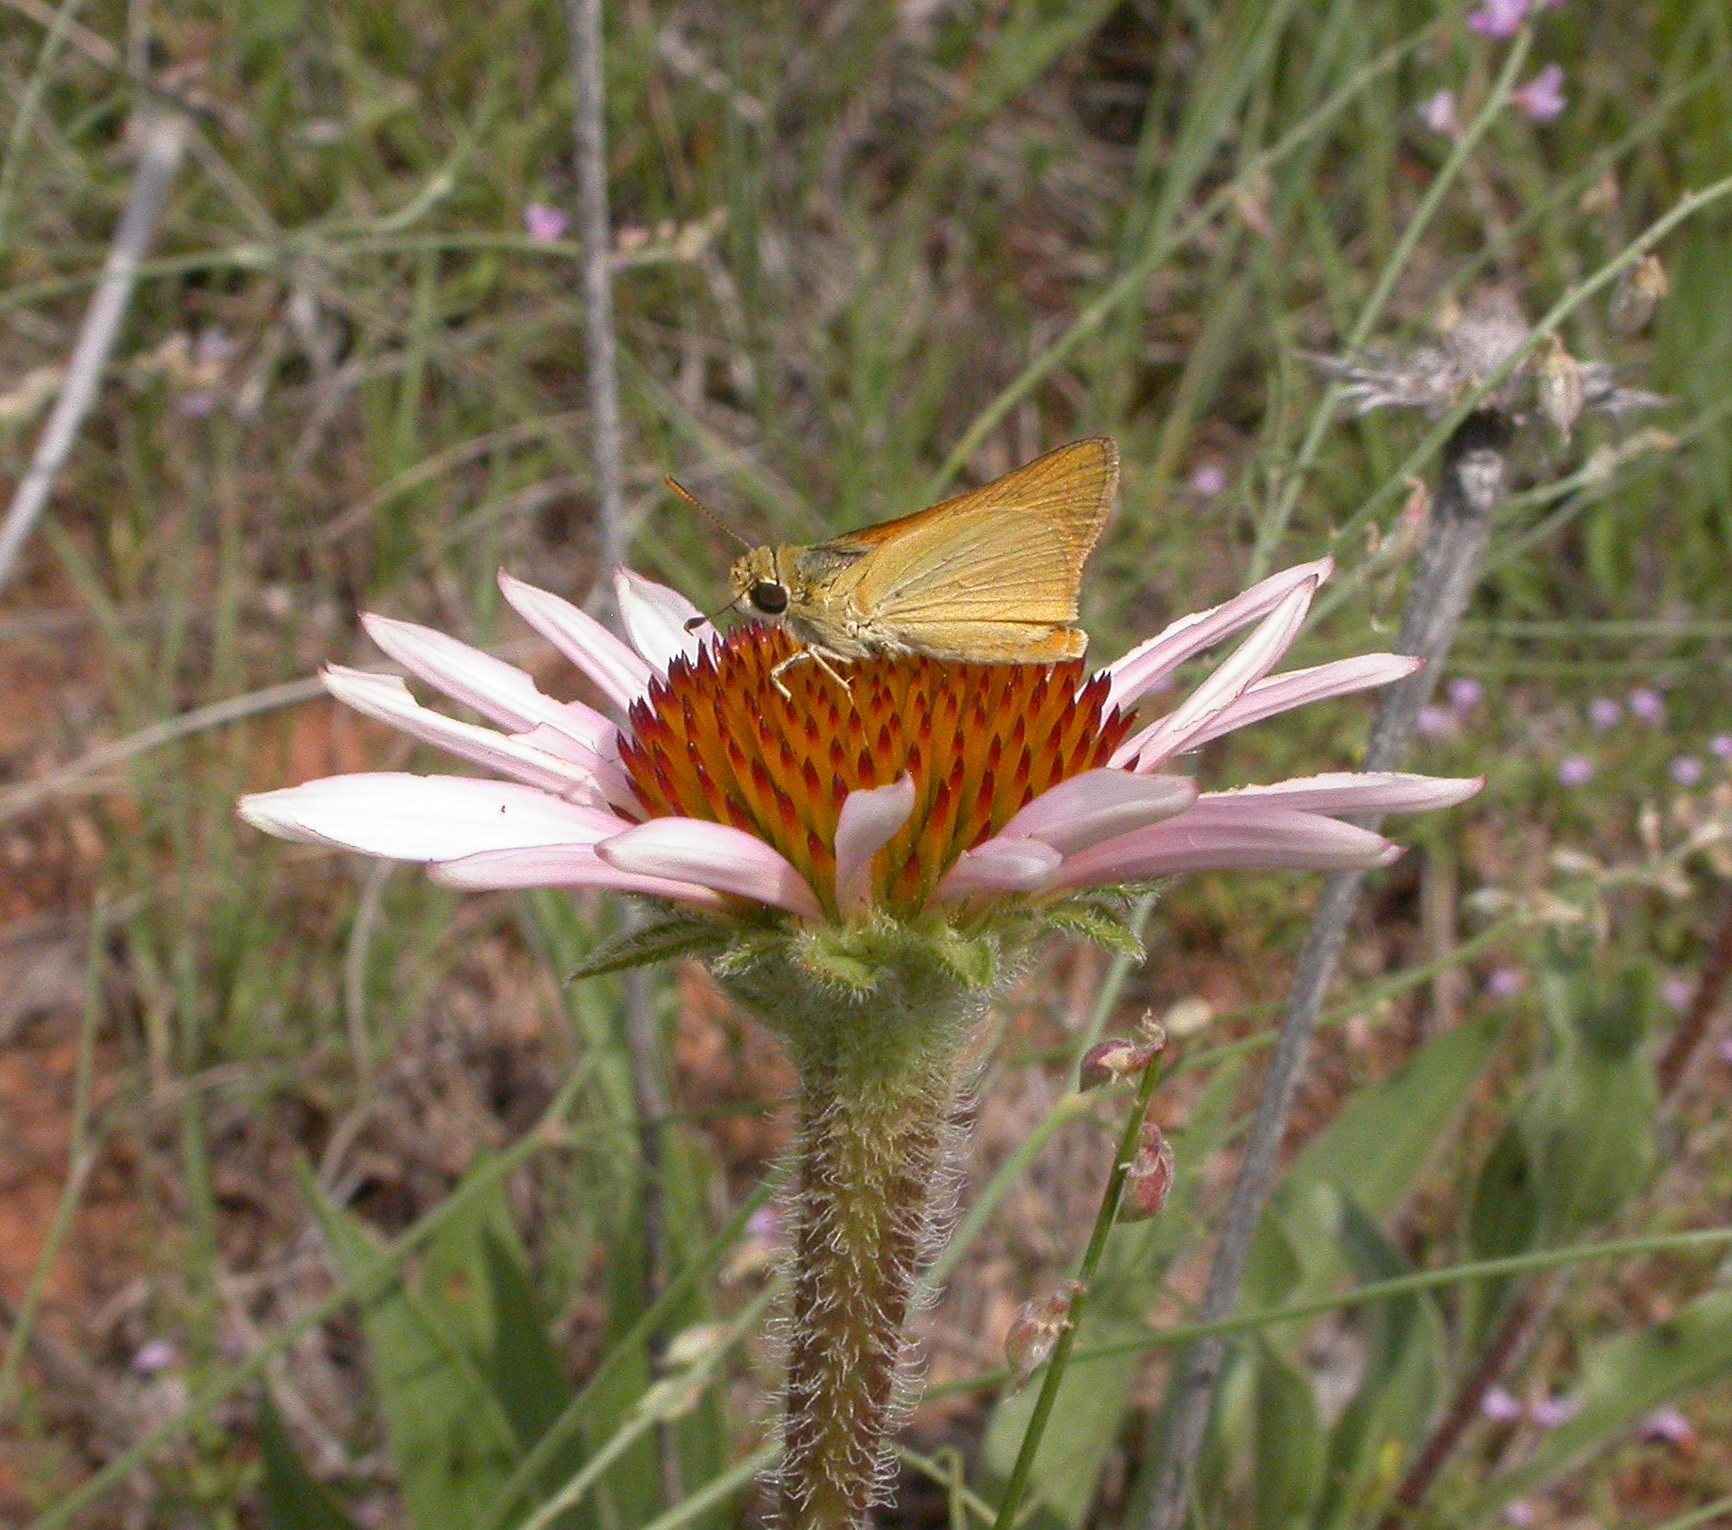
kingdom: Plantae
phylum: Tracheophyta
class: Magnoliopsida
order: Asterales
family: Asteraceae
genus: Echinacea
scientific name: Echinacea angustifolia
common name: Black-sampson echinacea
